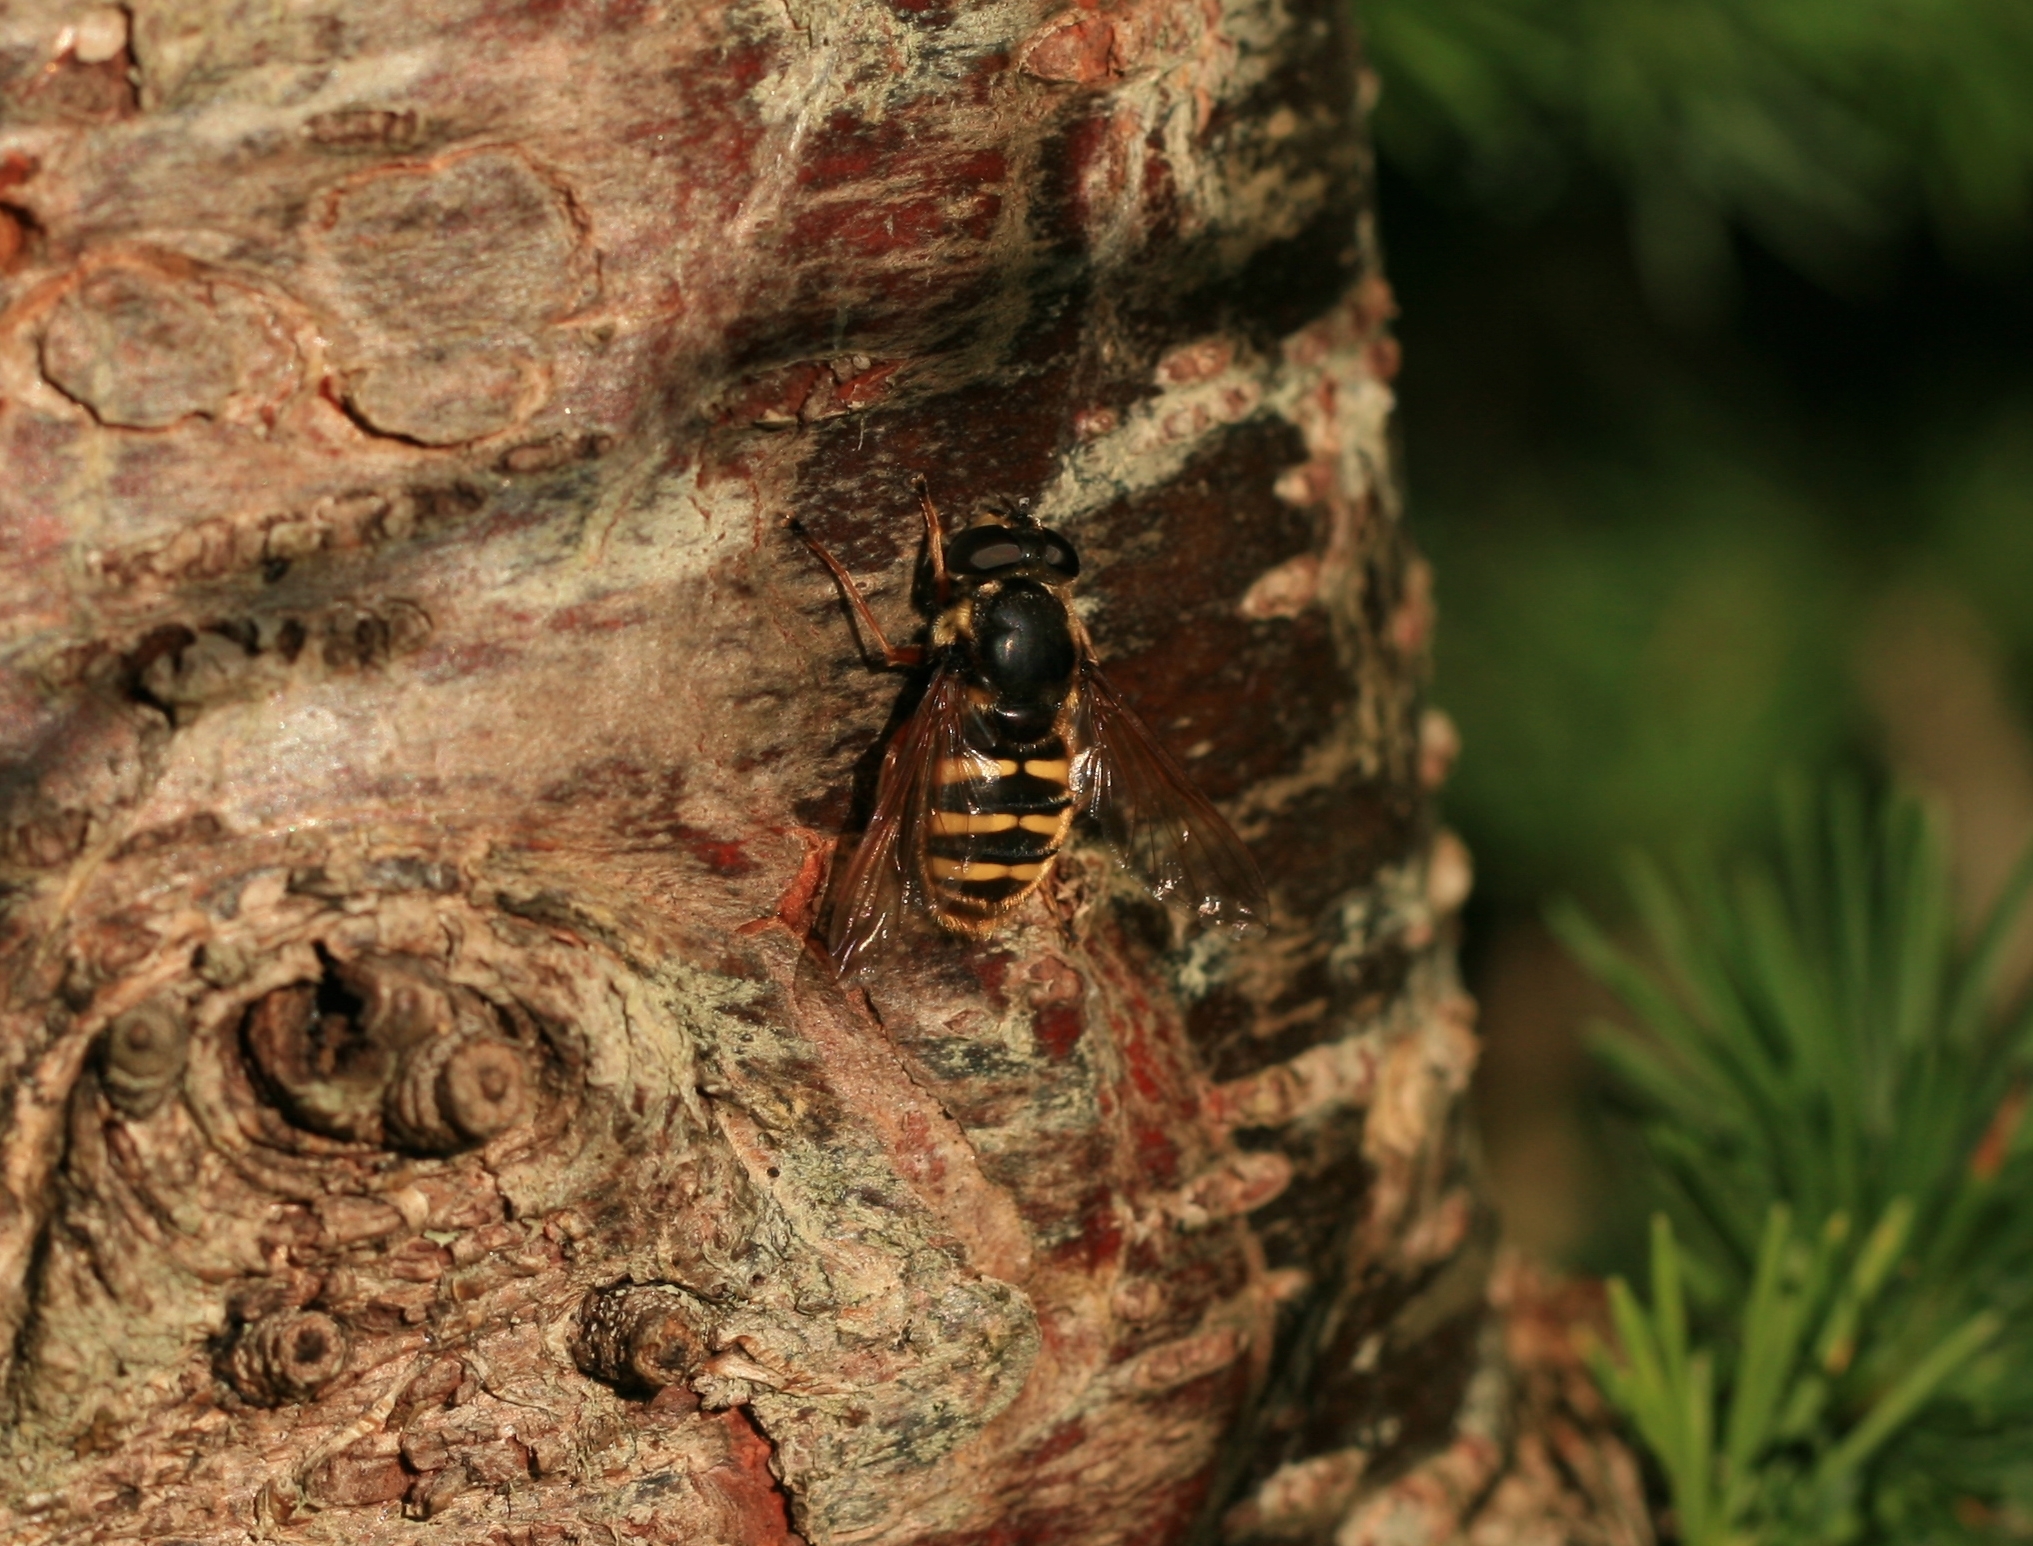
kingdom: Animalia
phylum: Arthropoda
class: Insecta
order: Diptera
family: Syrphidae
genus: Sericomyia
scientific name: Sericomyia silentis
